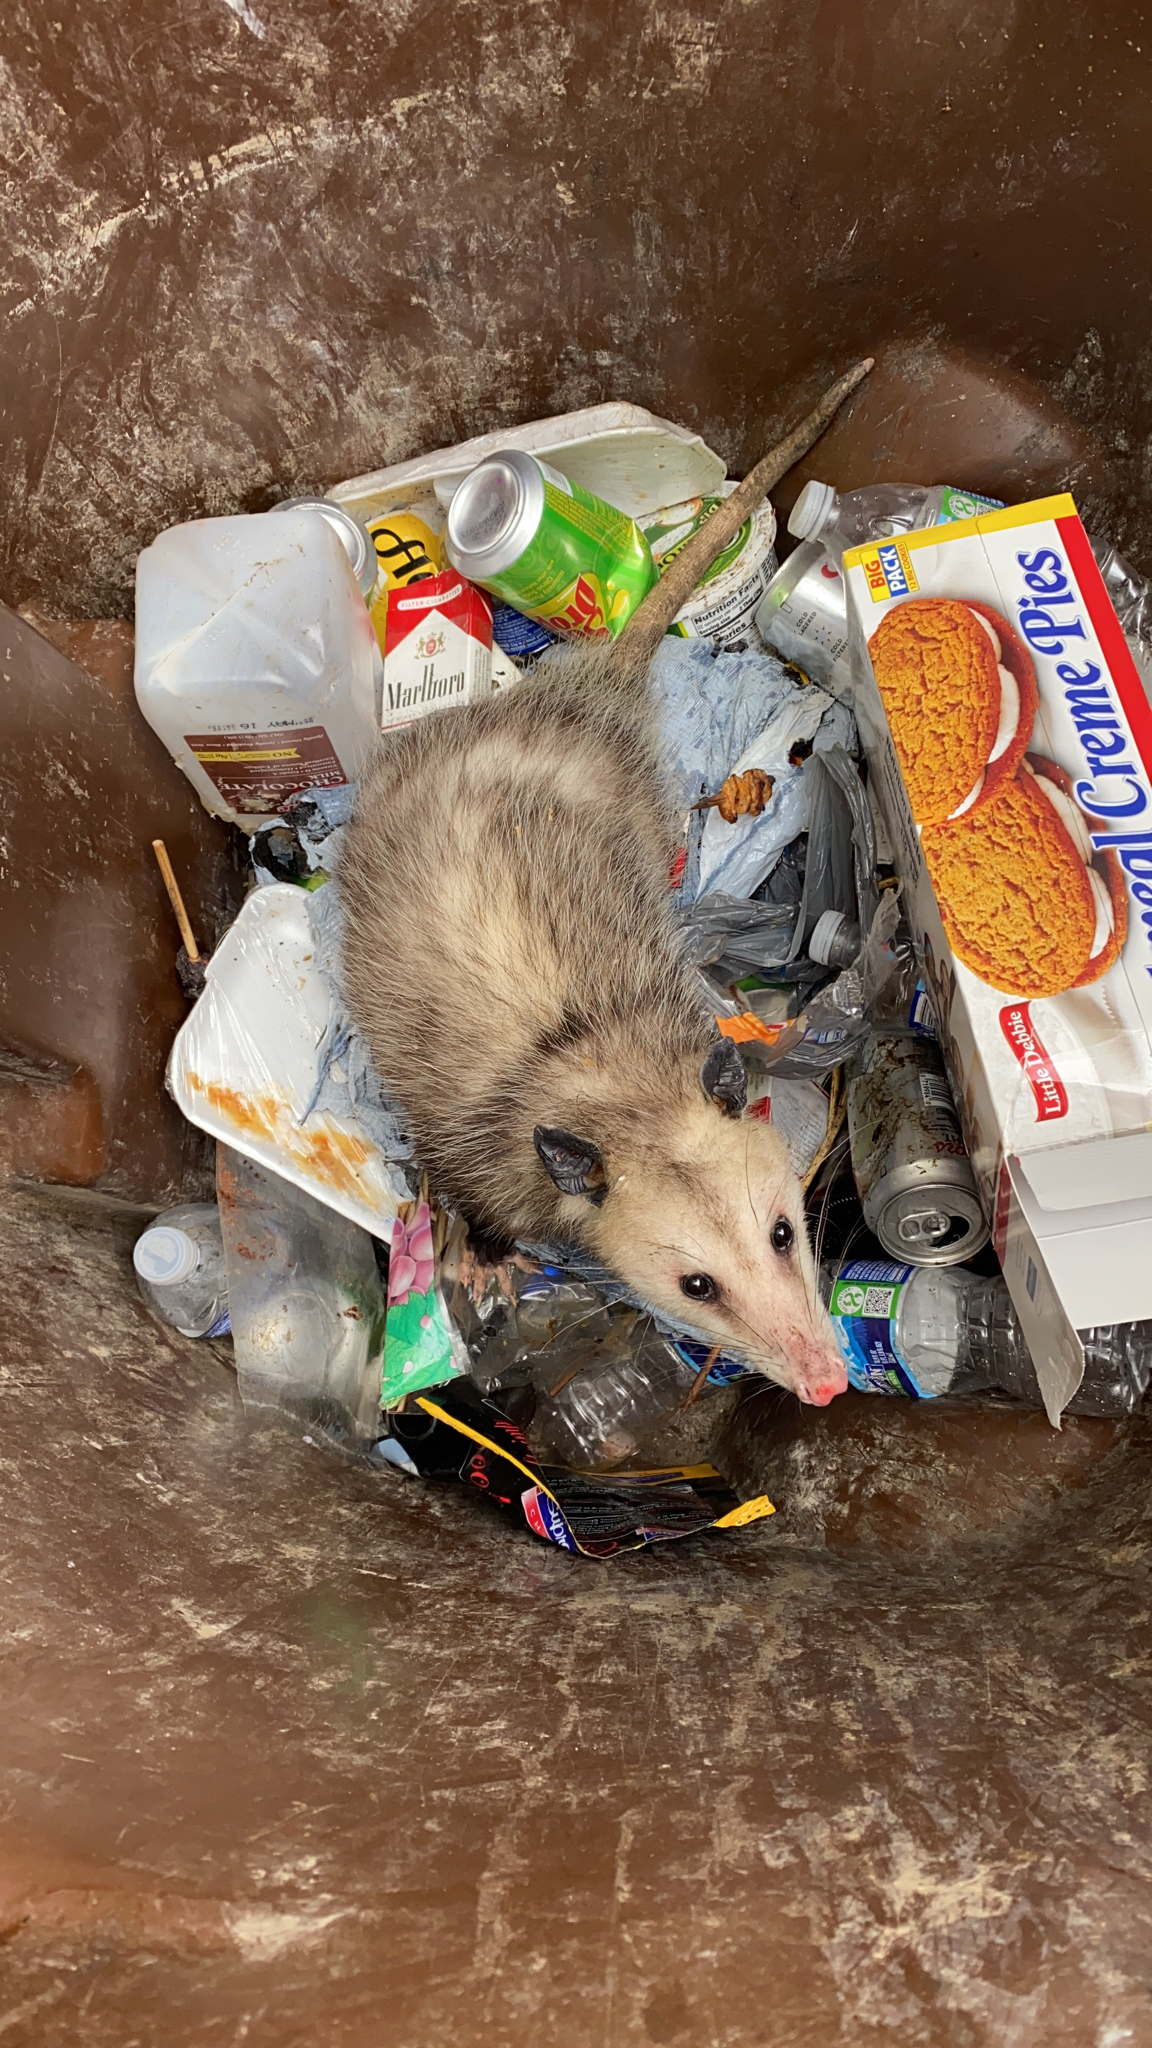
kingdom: Animalia
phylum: Chordata
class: Mammalia
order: Didelphimorphia
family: Didelphidae
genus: Didelphis
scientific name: Didelphis virginiana
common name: Virginia opossum
